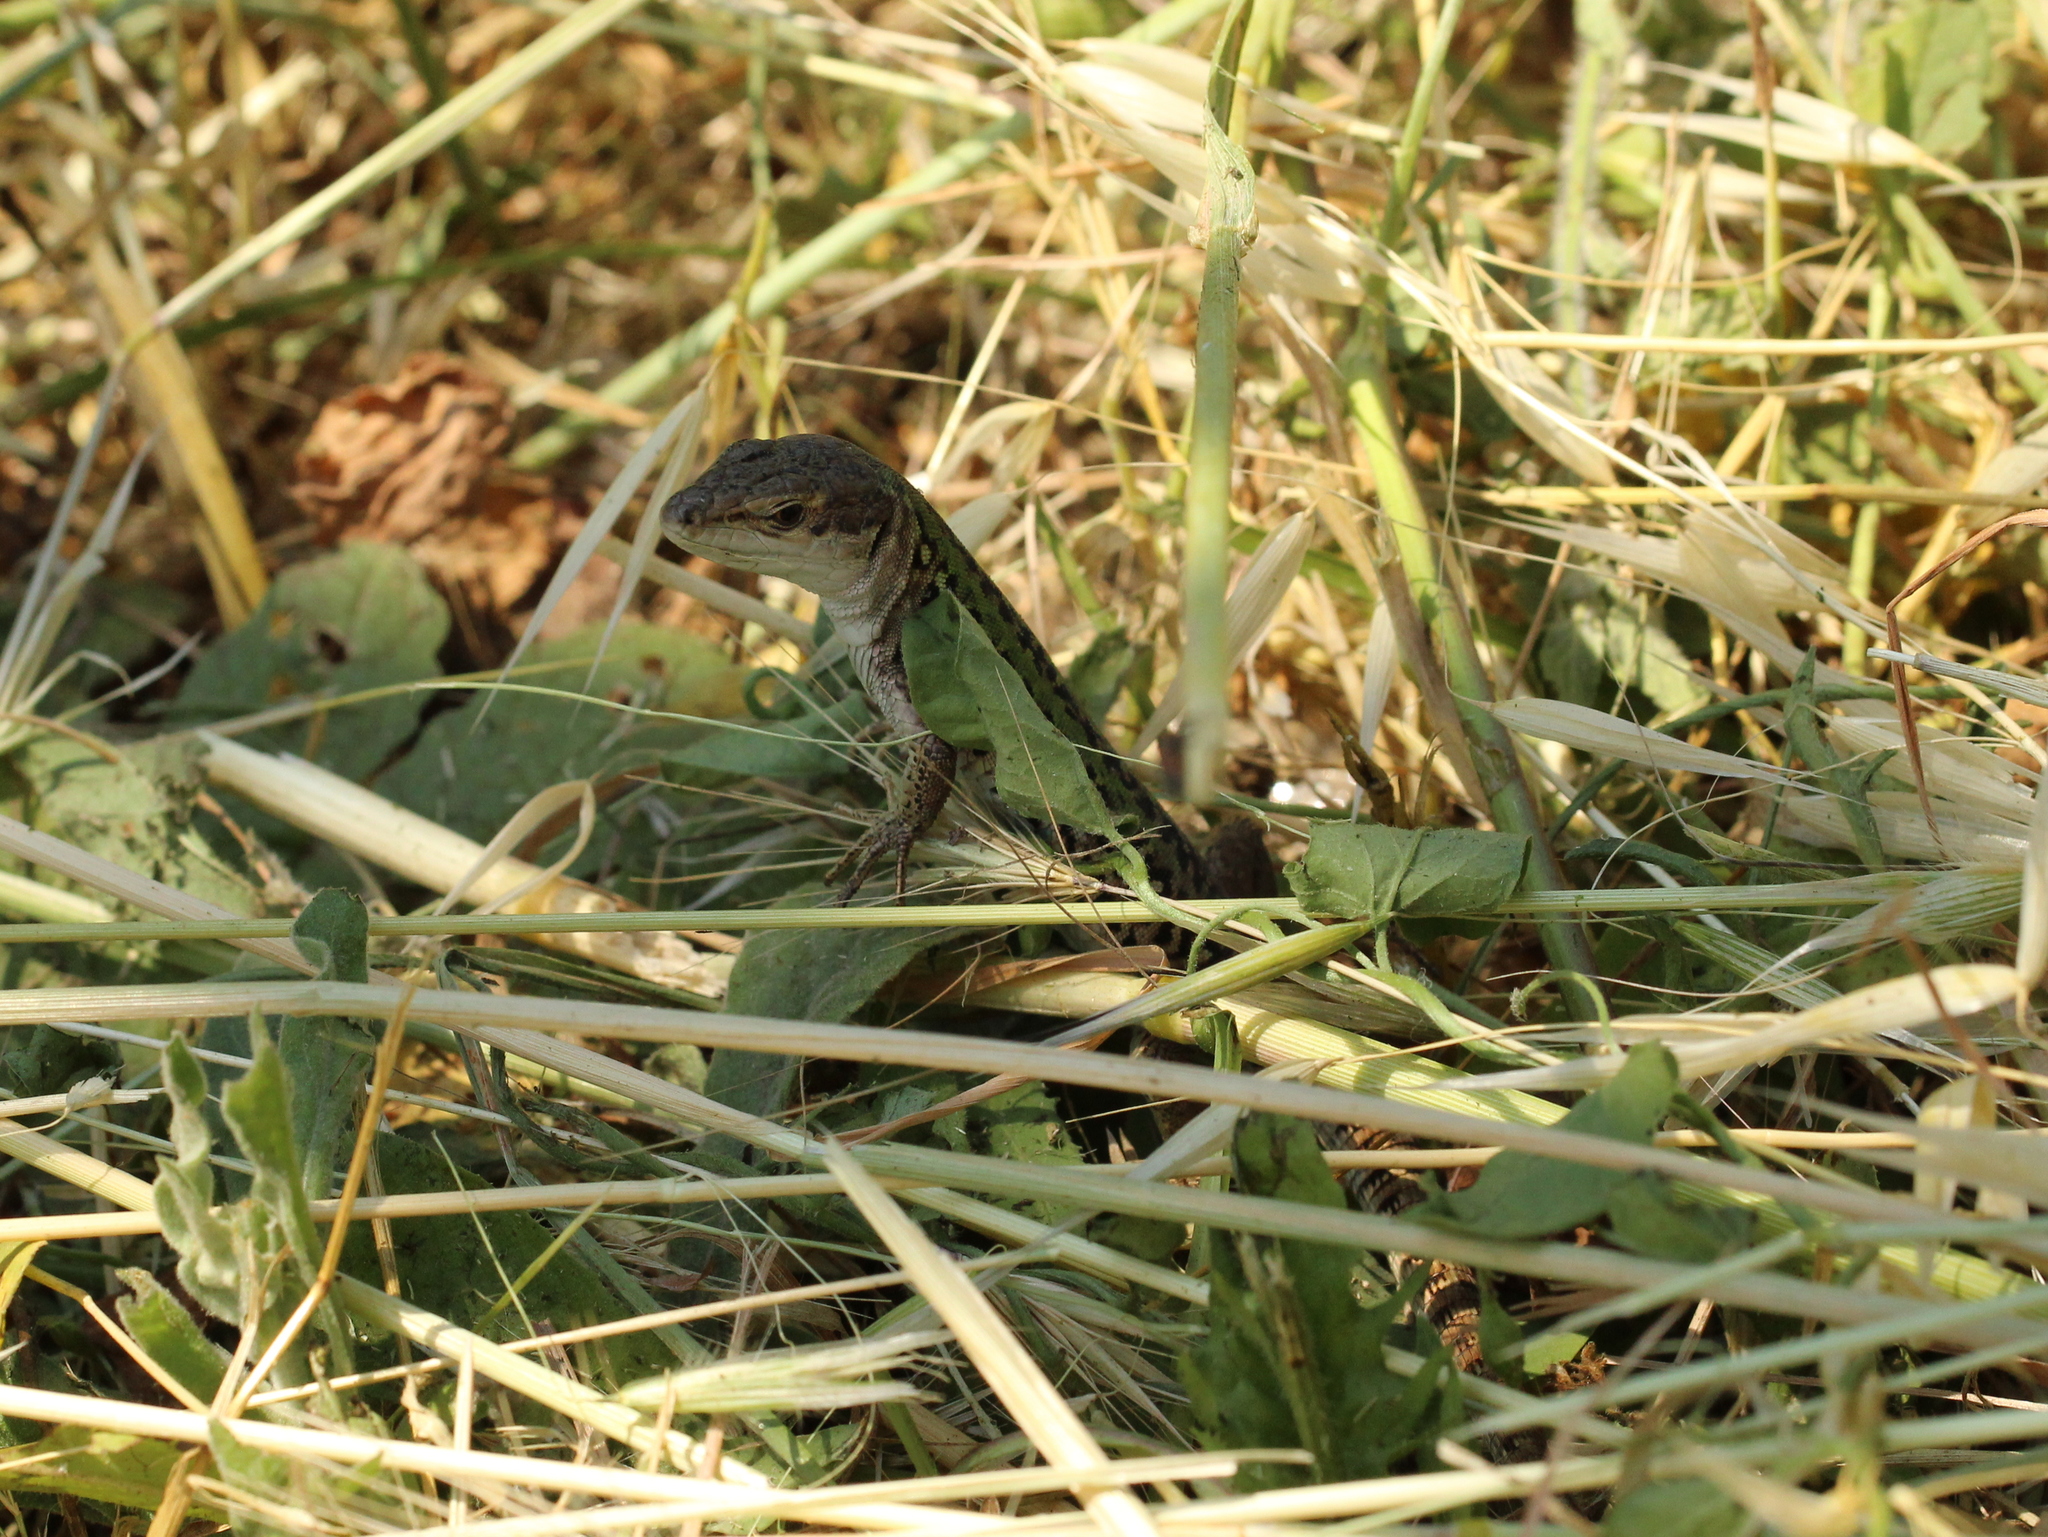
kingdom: Animalia
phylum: Chordata
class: Squamata
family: Lacertidae
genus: Podarcis
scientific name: Podarcis siculus
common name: Italian wall lizard
